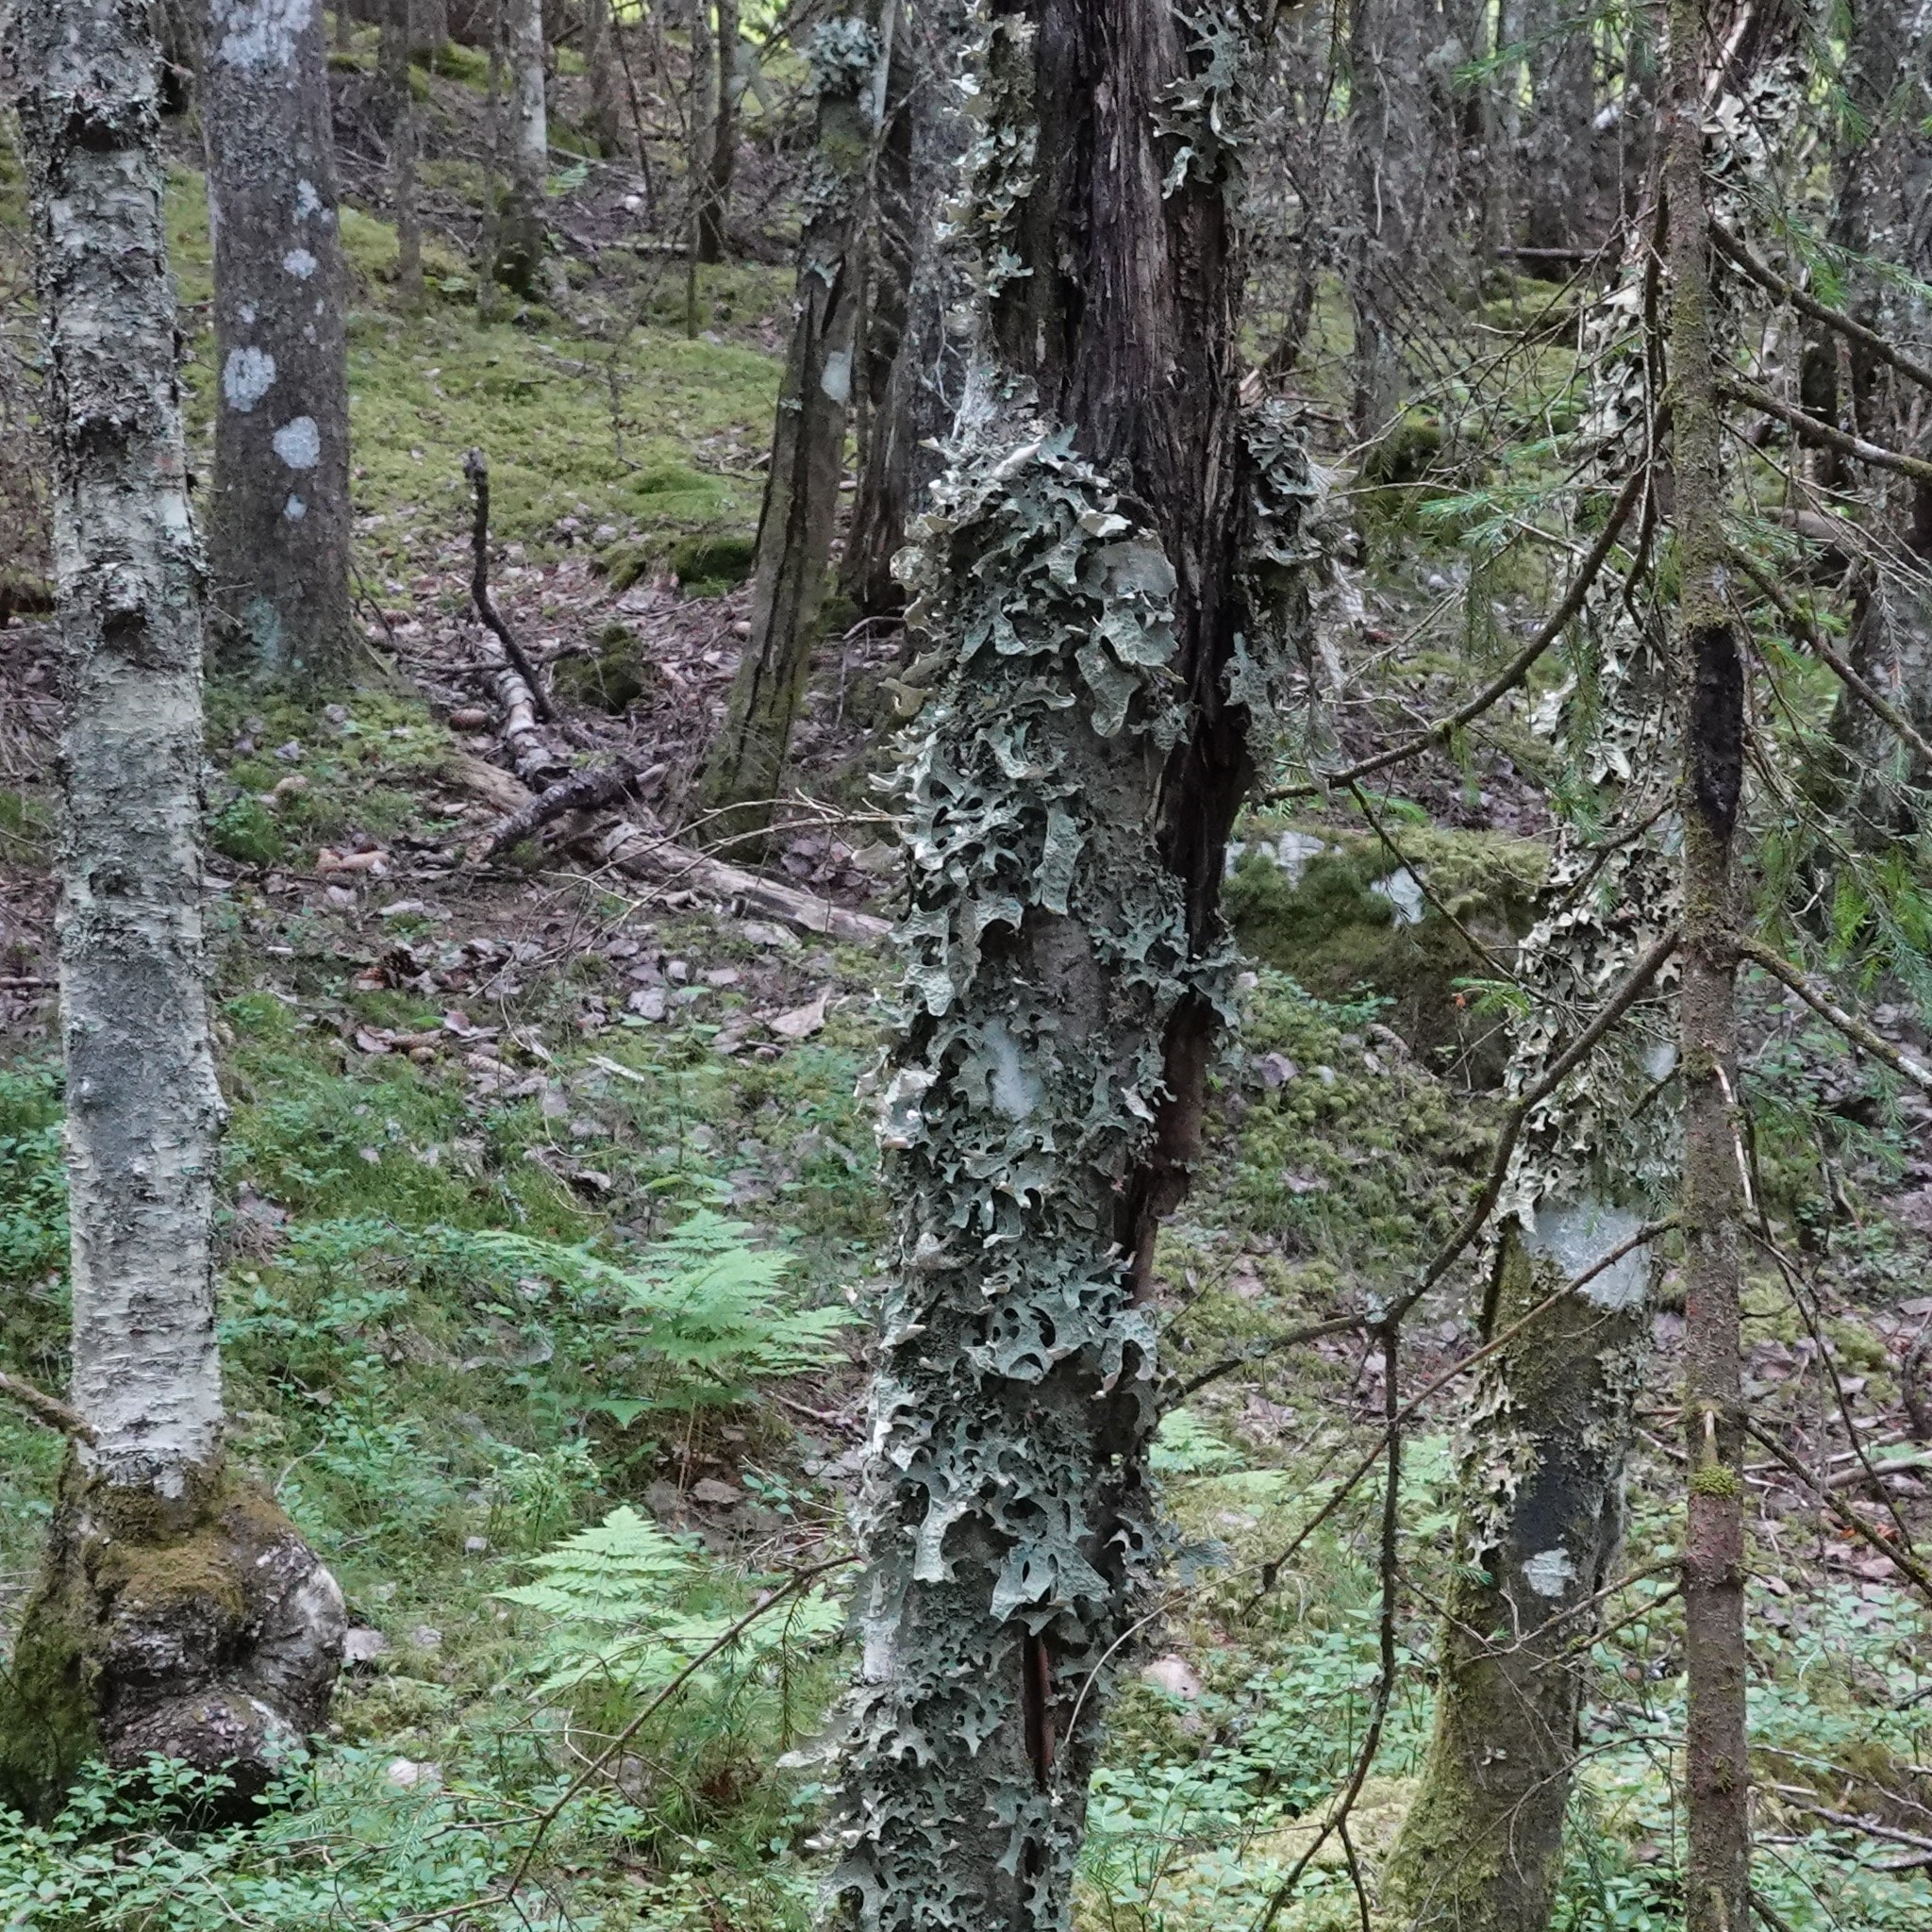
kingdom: Fungi
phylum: Ascomycota
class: Lecanoromycetes
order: Peltigerales
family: Lobariaceae
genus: Lobaria
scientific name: Lobaria pulmonaria
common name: Lungwort
